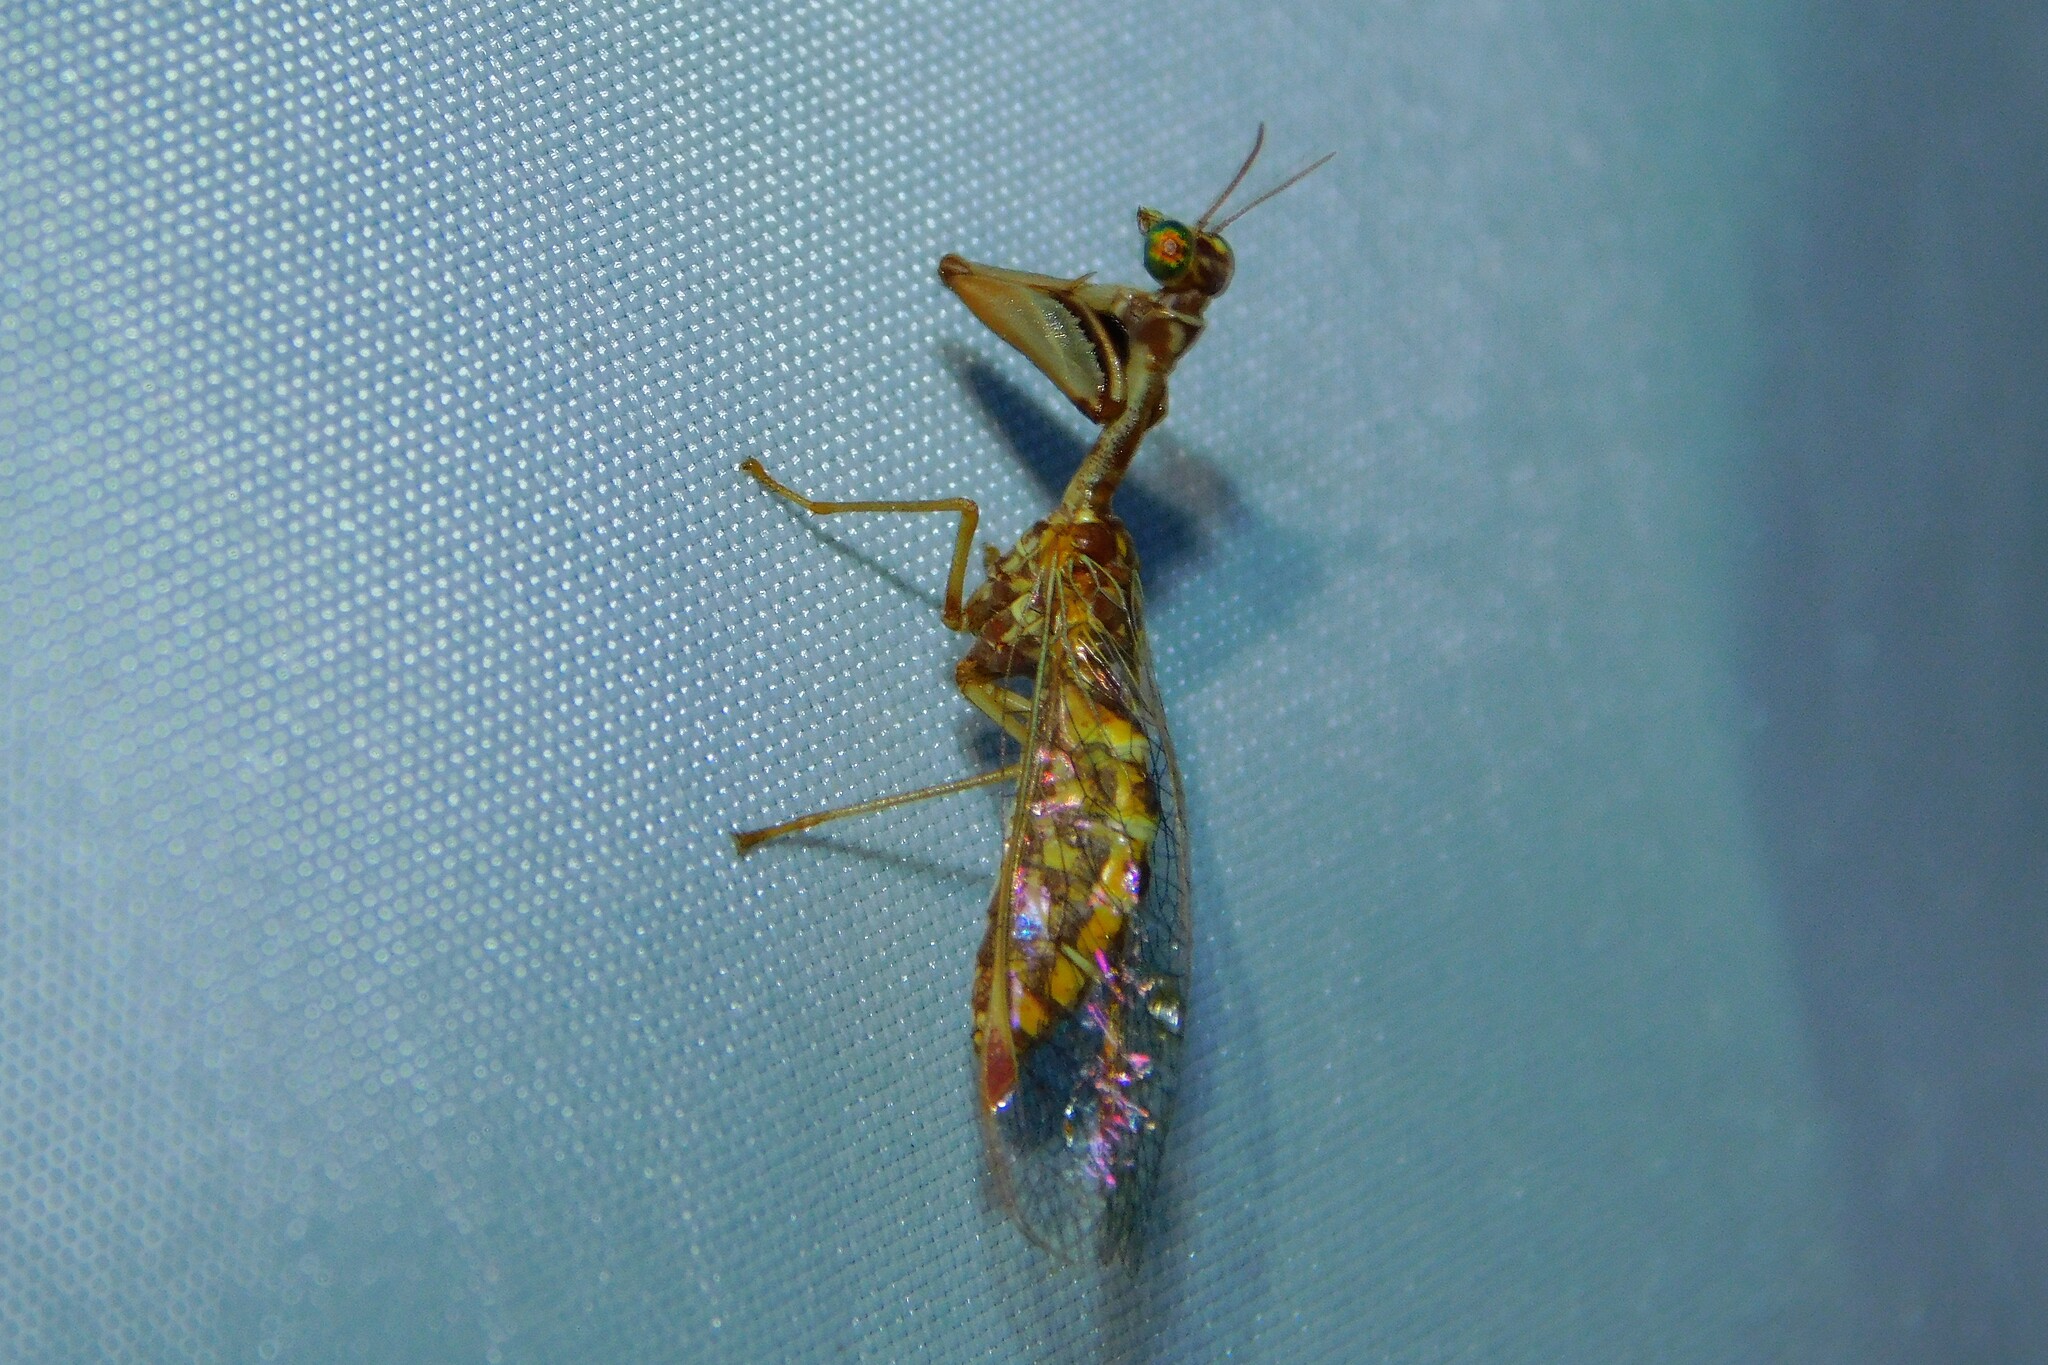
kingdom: Animalia
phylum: Arthropoda
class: Insecta
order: Neuroptera
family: Mantispidae
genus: Mantispa
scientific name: Mantispa styriaca
